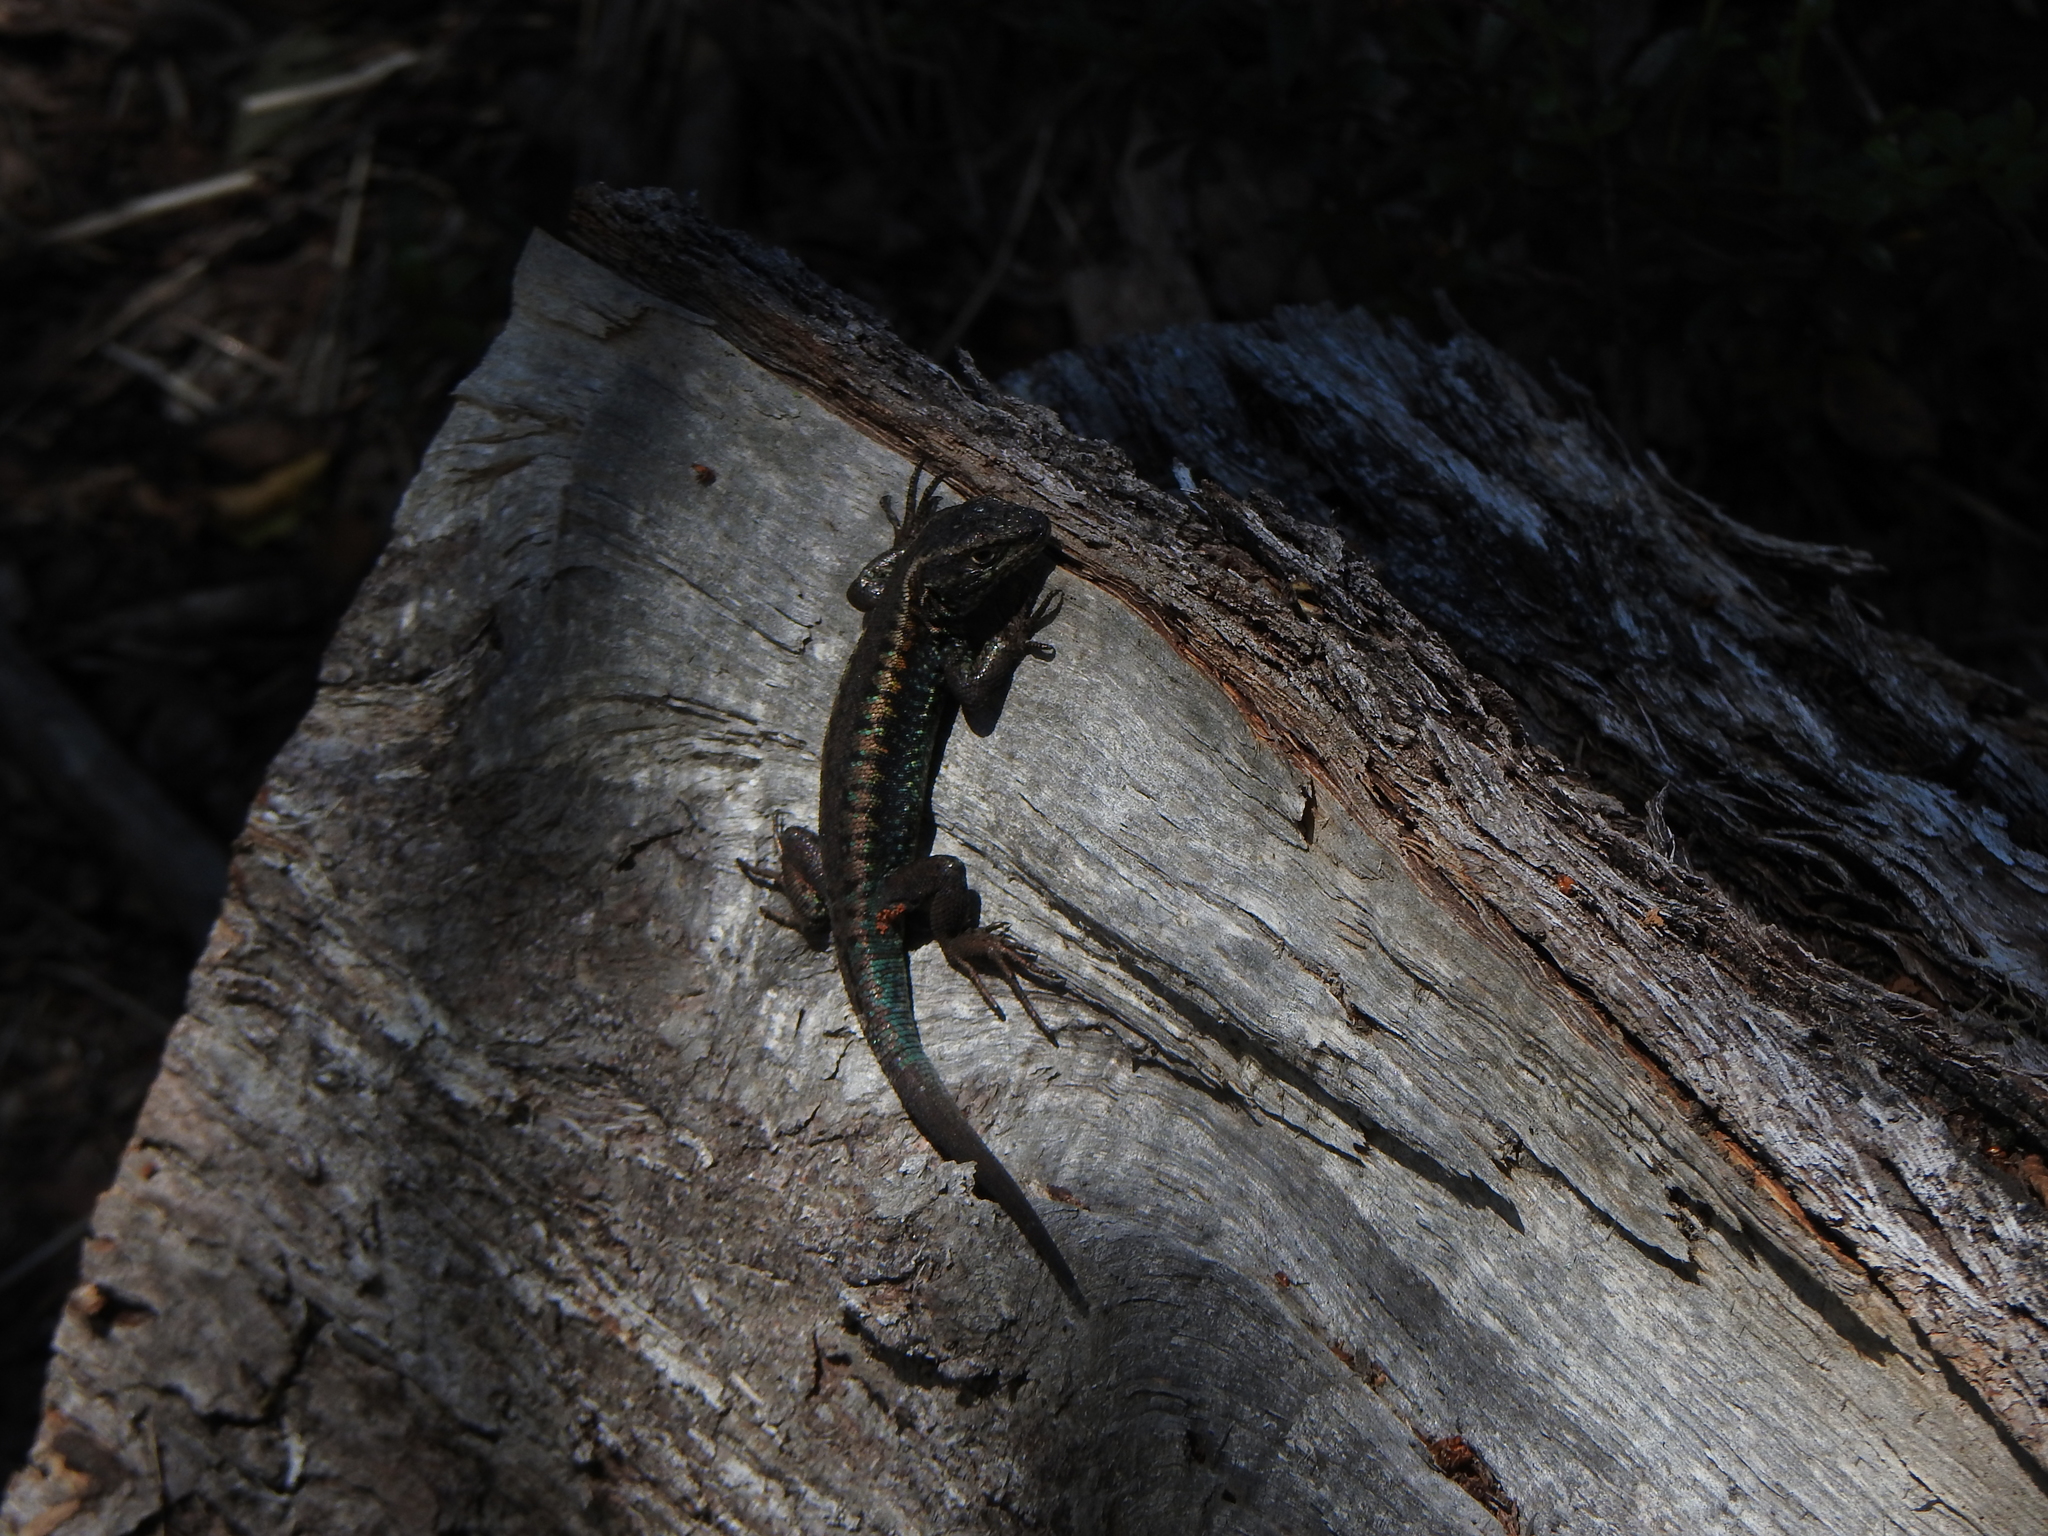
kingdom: Animalia
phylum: Chordata
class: Squamata
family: Liolaemidae
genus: Liolaemus
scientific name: Liolaemus pictus
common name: Painted tree iguana
